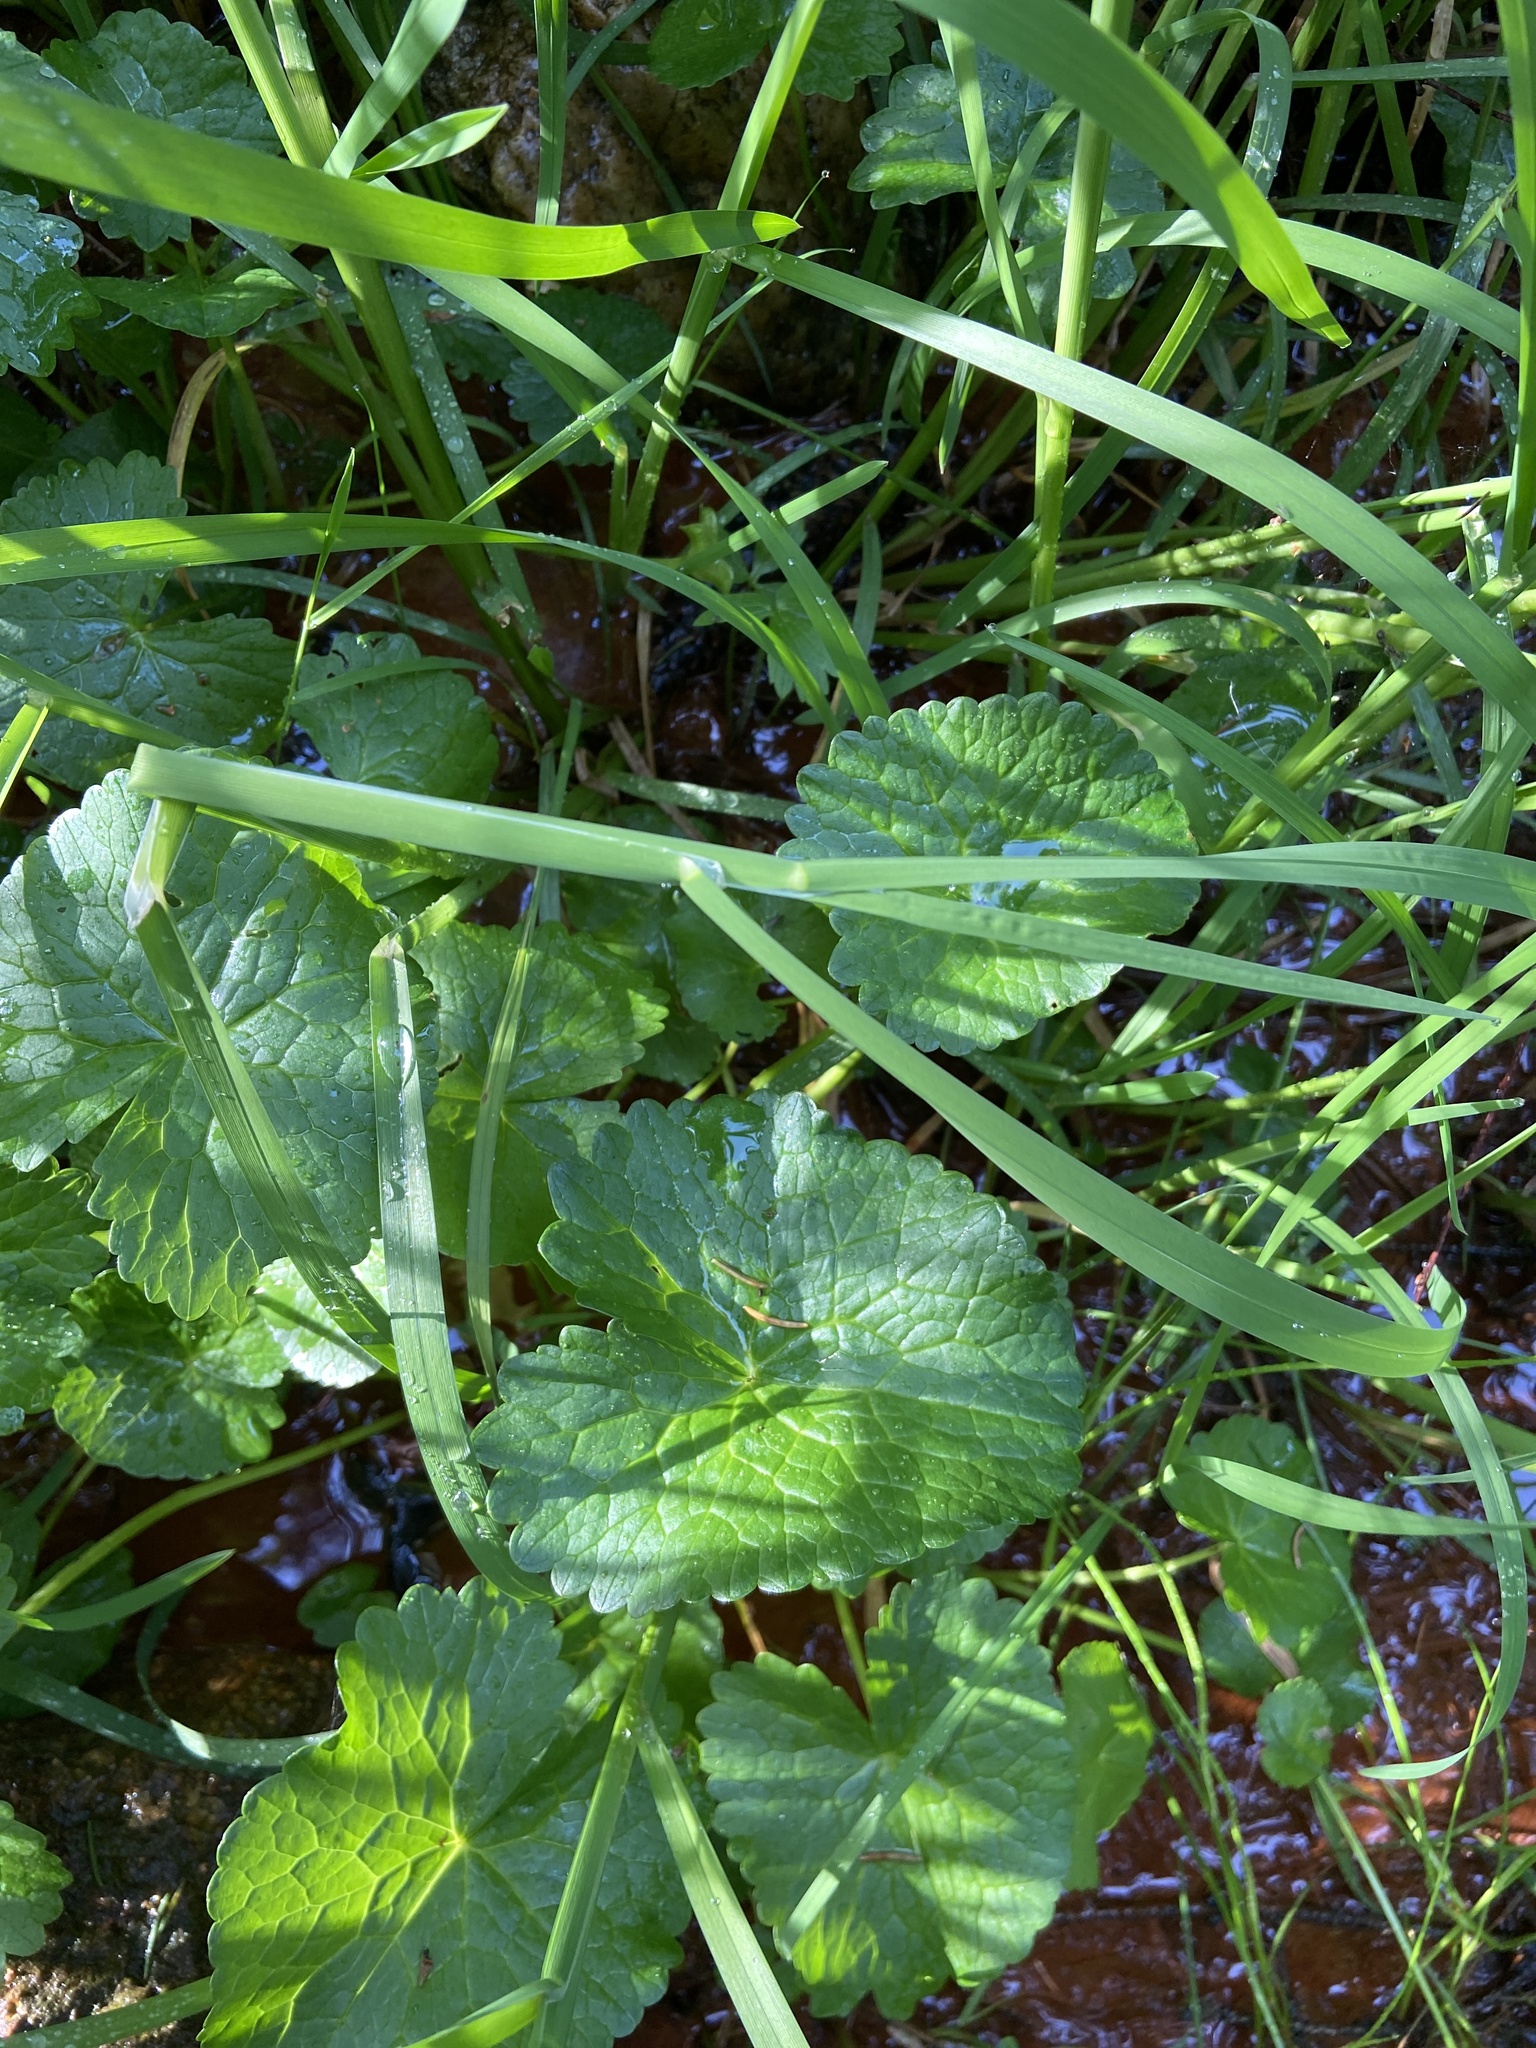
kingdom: Plantae
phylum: Tracheophyta
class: Magnoliopsida
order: Ranunculales
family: Ranunculaceae
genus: Caltha
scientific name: Caltha palustris
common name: Marsh marigold
